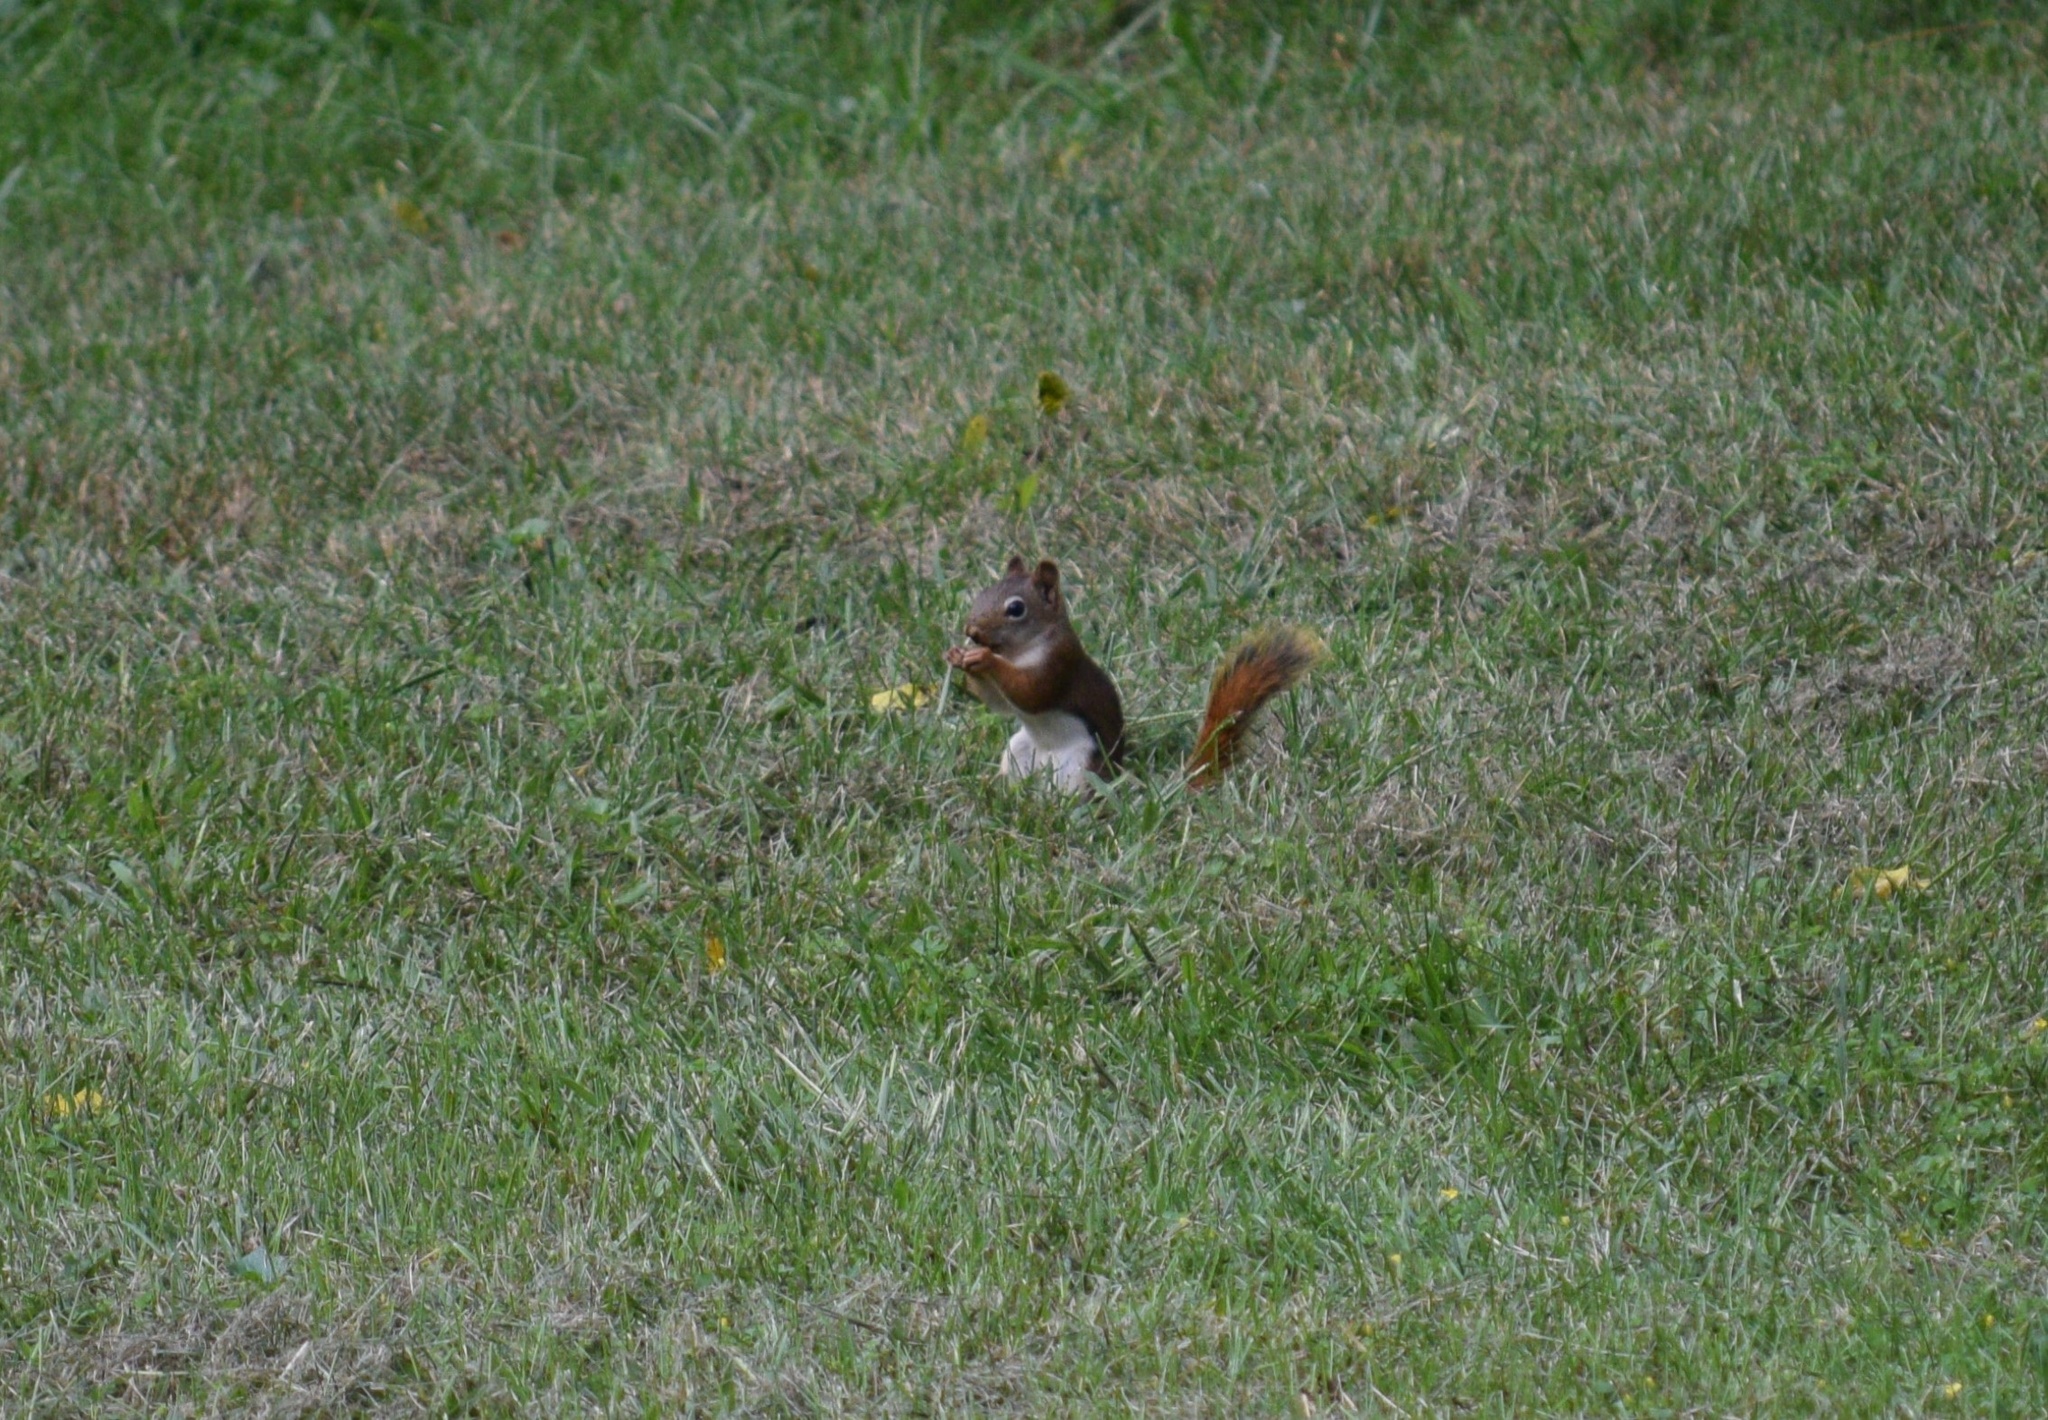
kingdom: Animalia
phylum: Chordata
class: Mammalia
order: Rodentia
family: Sciuridae
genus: Tamiasciurus
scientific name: Tamiasciurus hudsonicus
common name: Red squirrel
